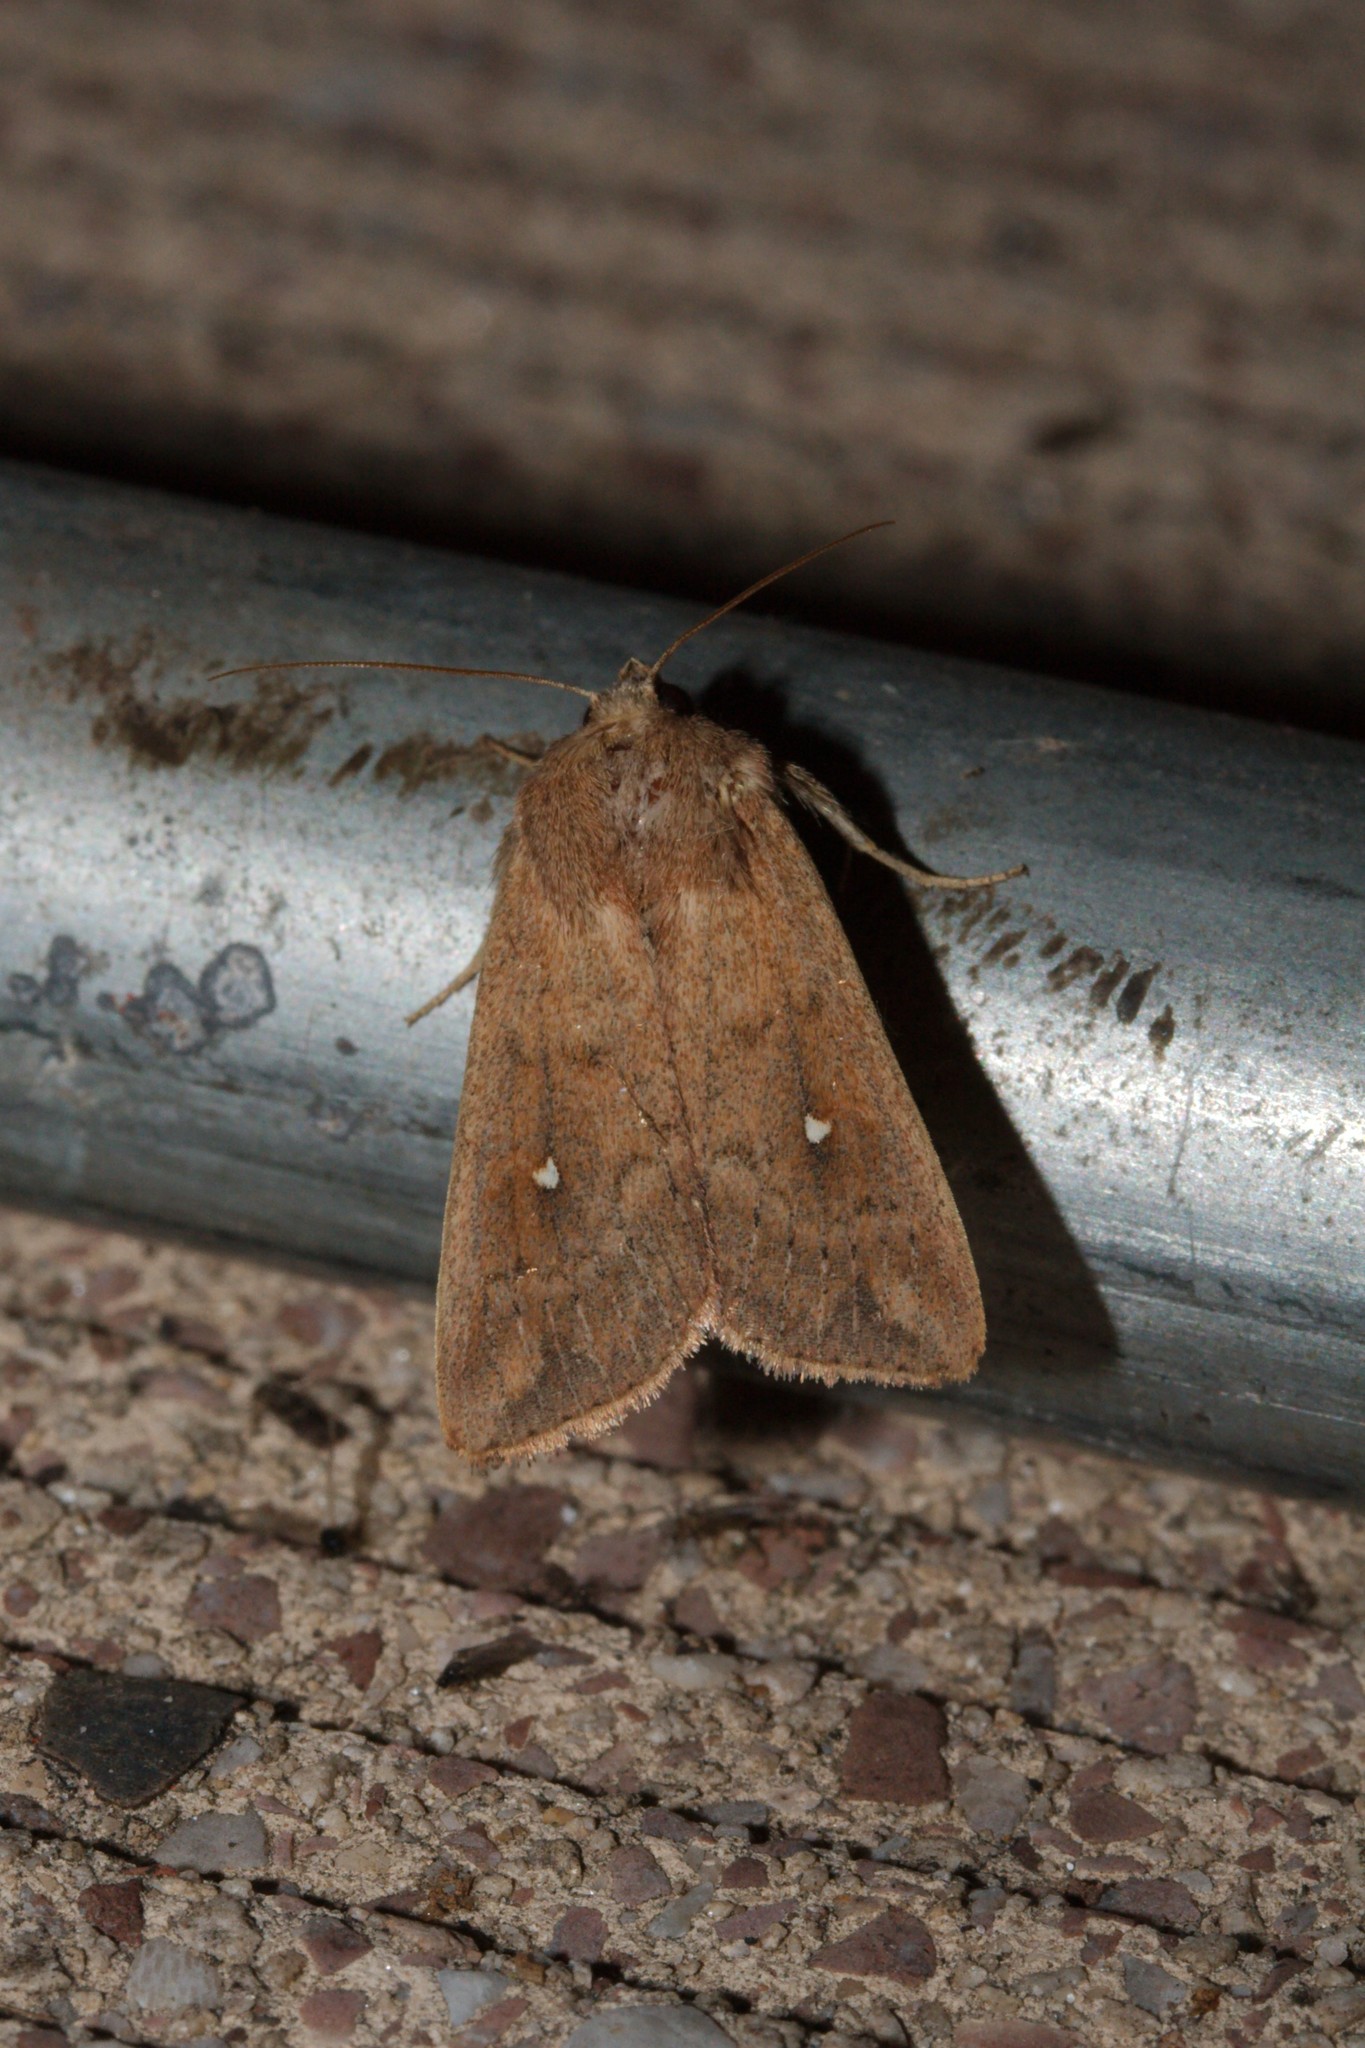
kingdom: Animalia
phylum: Arthropoda
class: Insecta
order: Lepidoptera
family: Noctuidae
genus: Mythimna
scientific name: Mythimna albipuncta
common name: White-point
